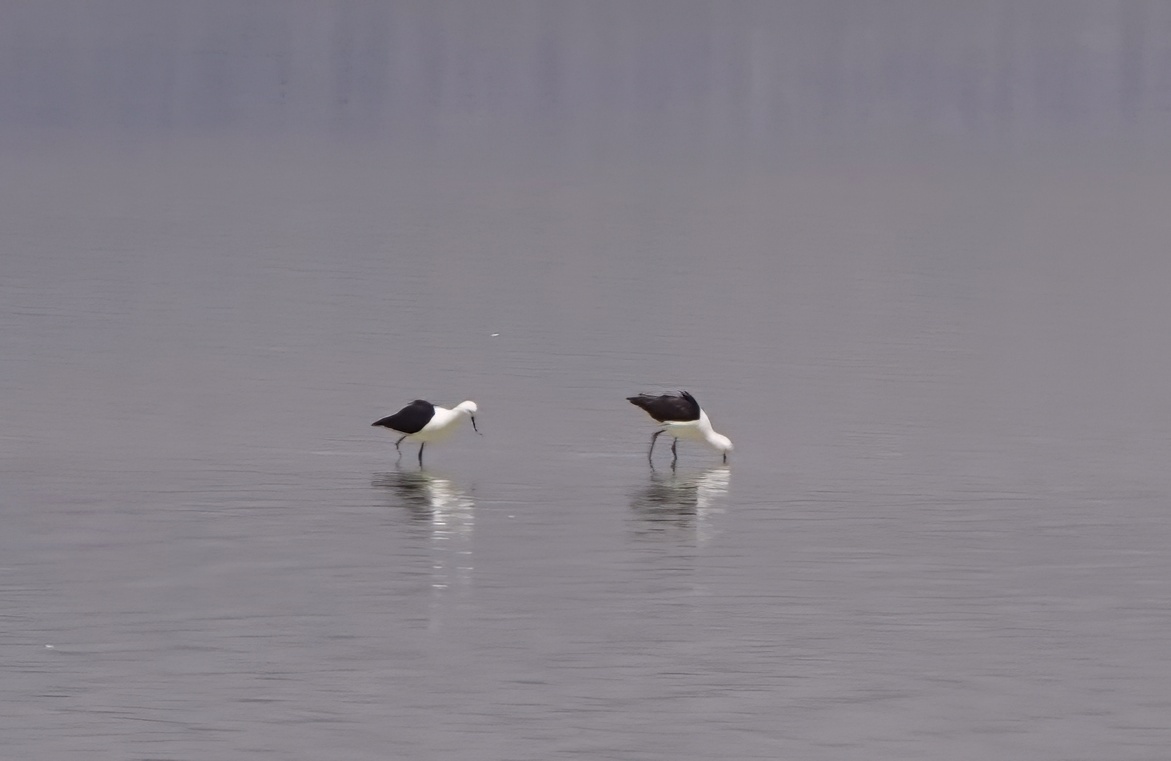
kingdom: Animalia
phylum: Chordata
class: Aves
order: Charadriiformes
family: Recurvirostridae
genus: Recurvirostra
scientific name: Recurvirostra andina
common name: Andean avocet
